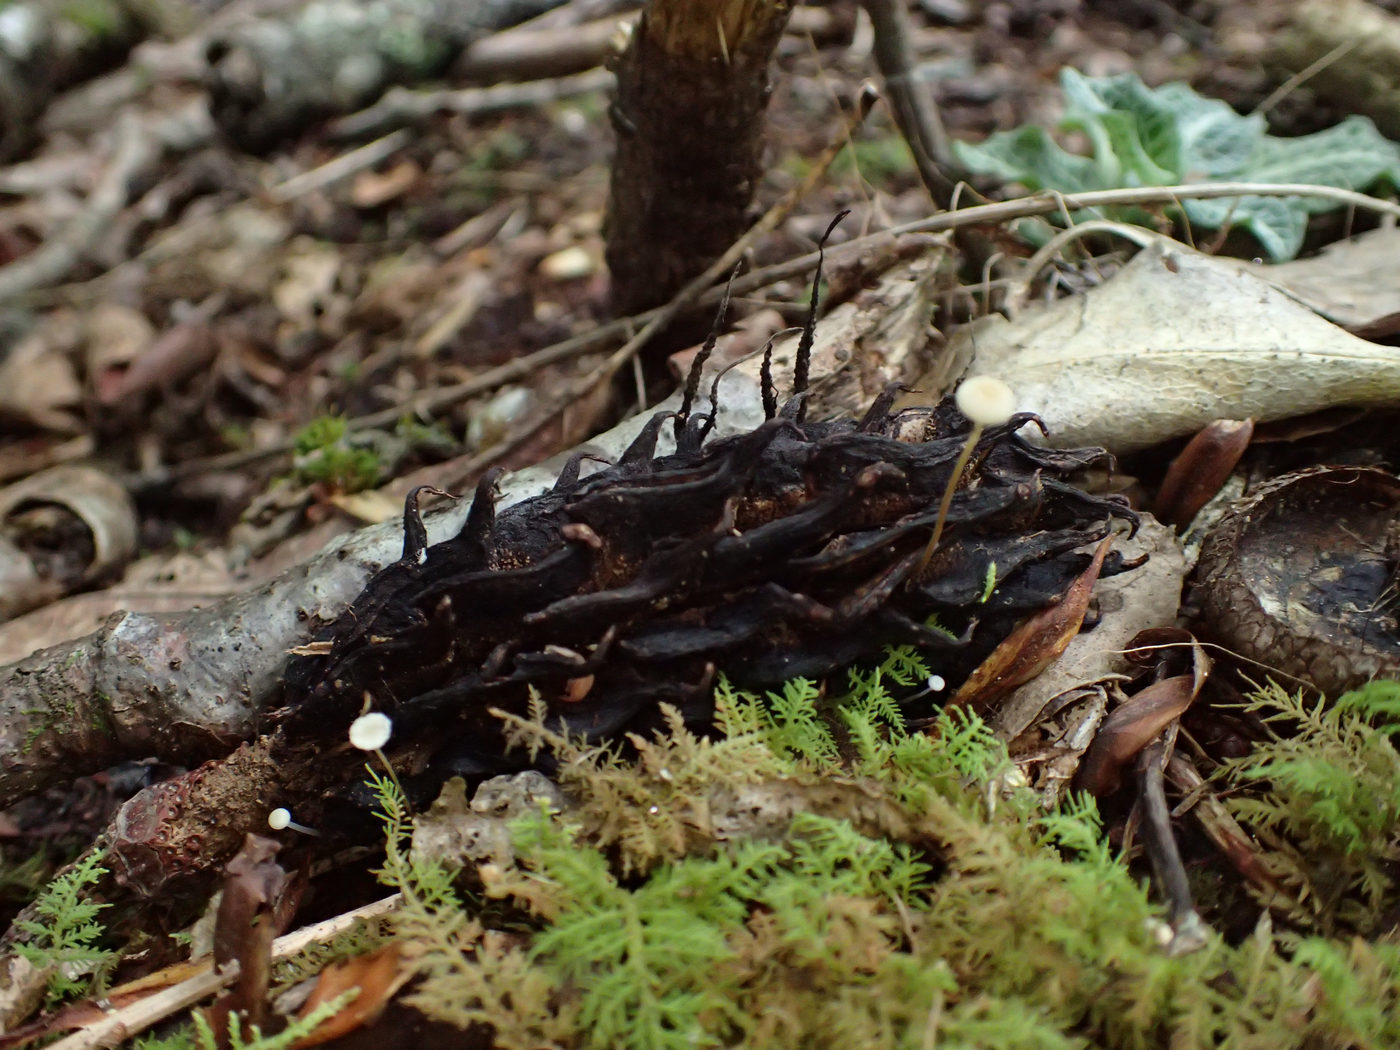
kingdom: Fungi
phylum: Basidiomycota
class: Agaricomycetes
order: Agaricales
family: Physalacriaceae
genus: Strobilurus
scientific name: Strobilurus conigenoides
